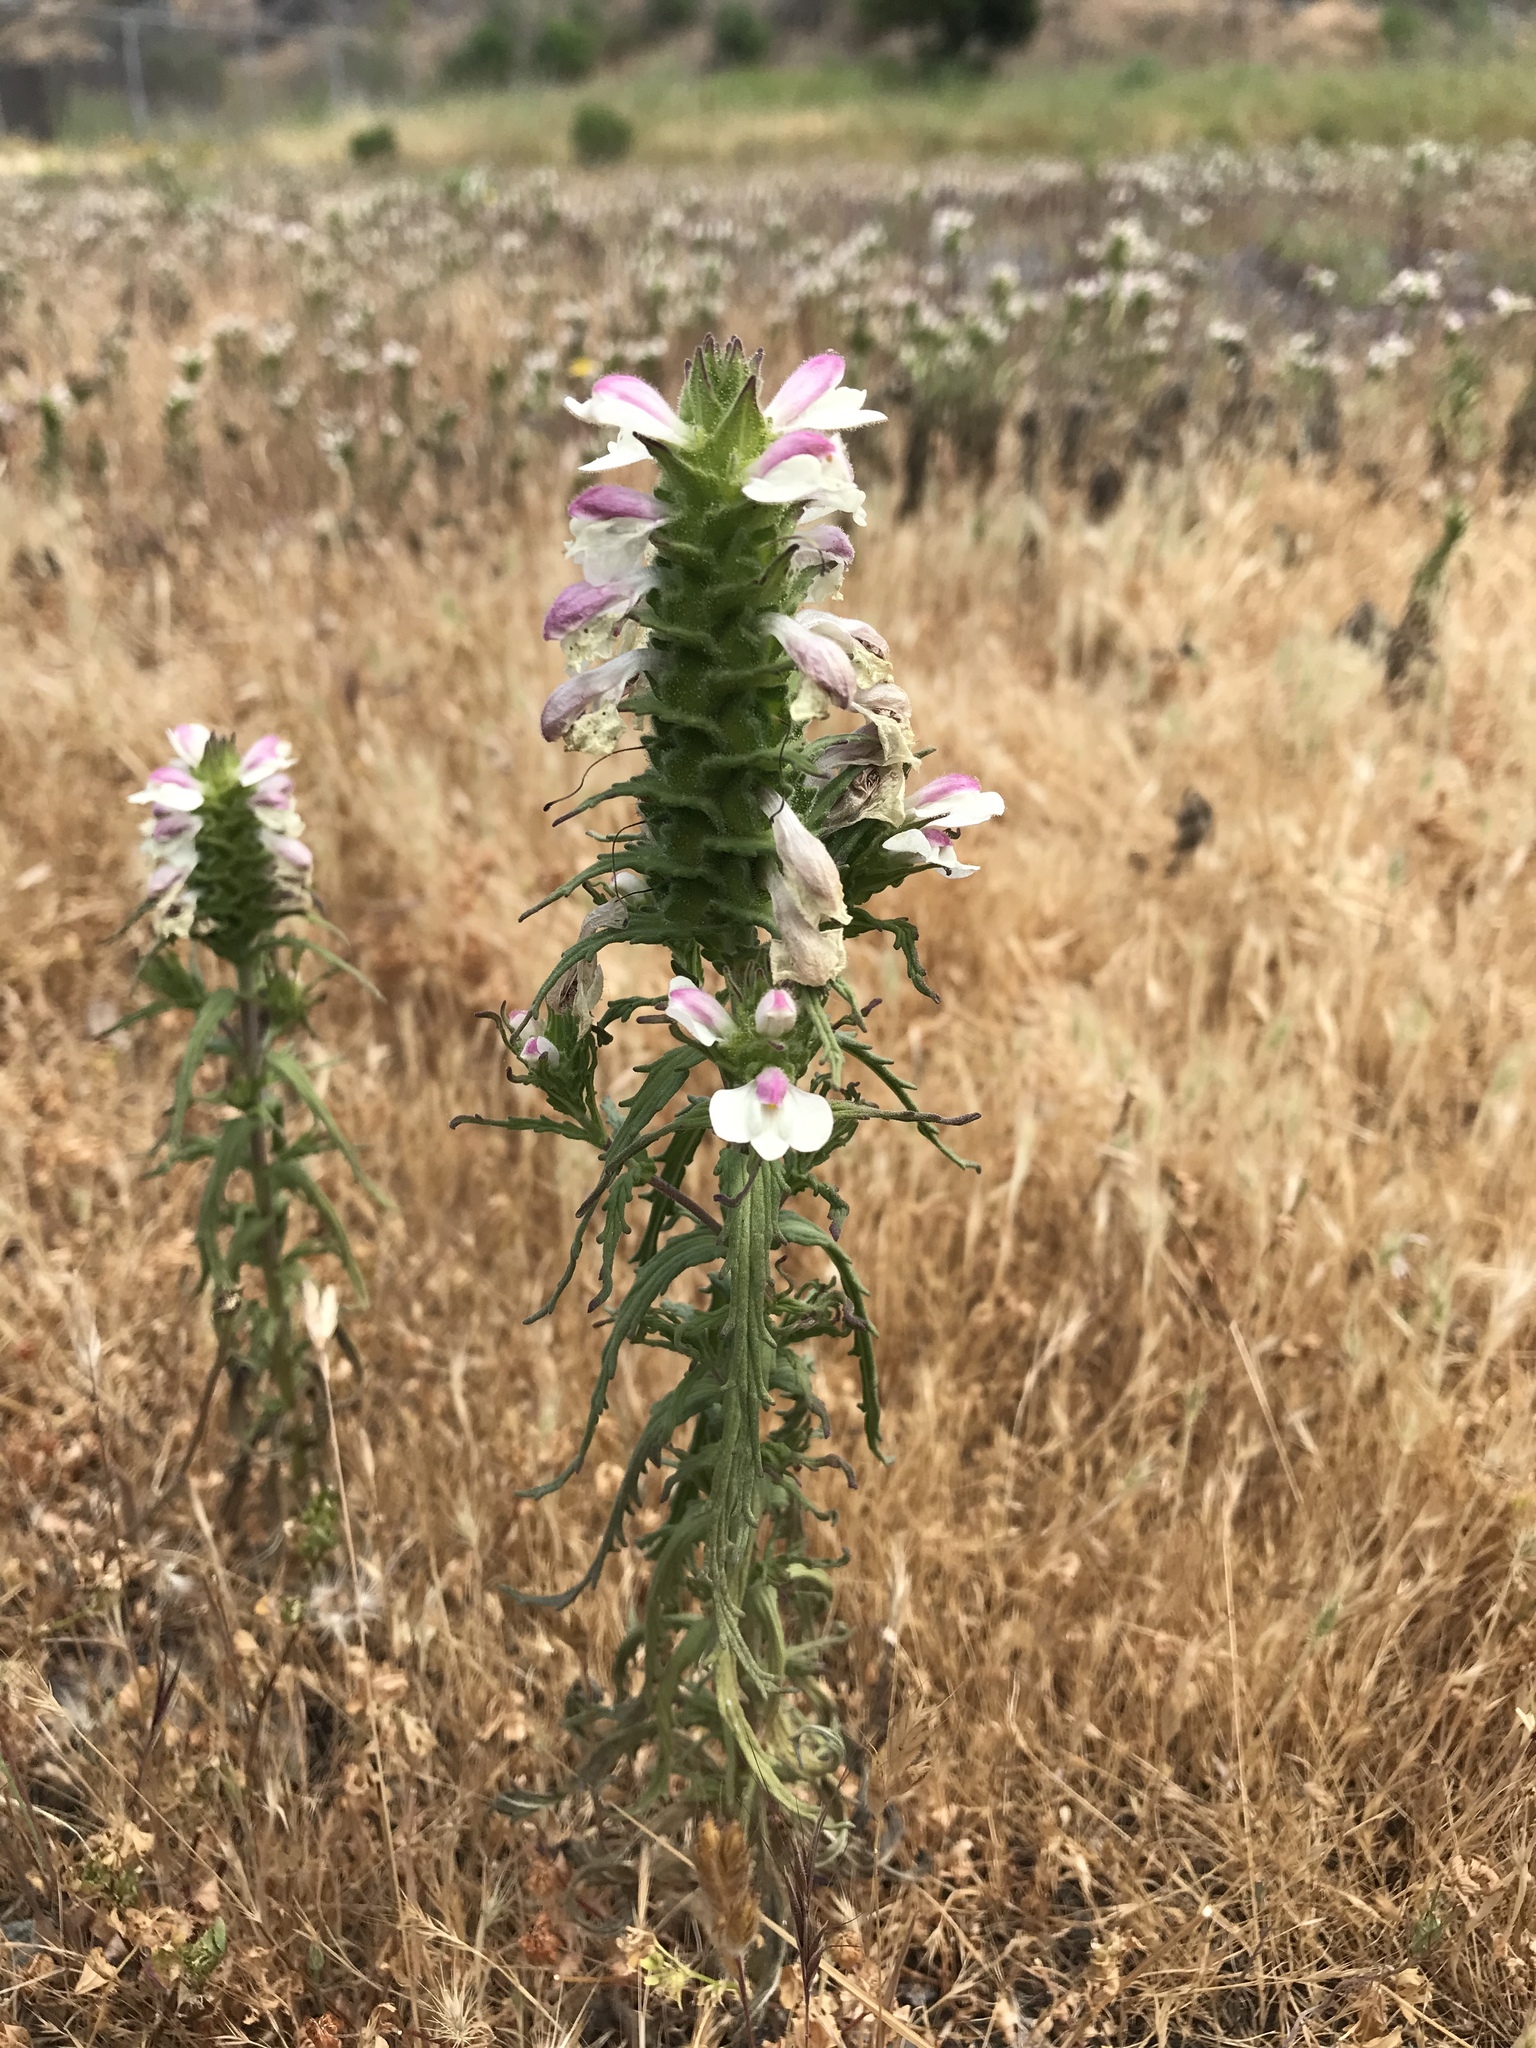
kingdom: Plantae
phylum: Tracheophyta
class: Magnoliopsida
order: Lamiales
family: Orobanchaceae
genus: Bellardia
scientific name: Bellardia trixago
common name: Mediterranean lineseed
